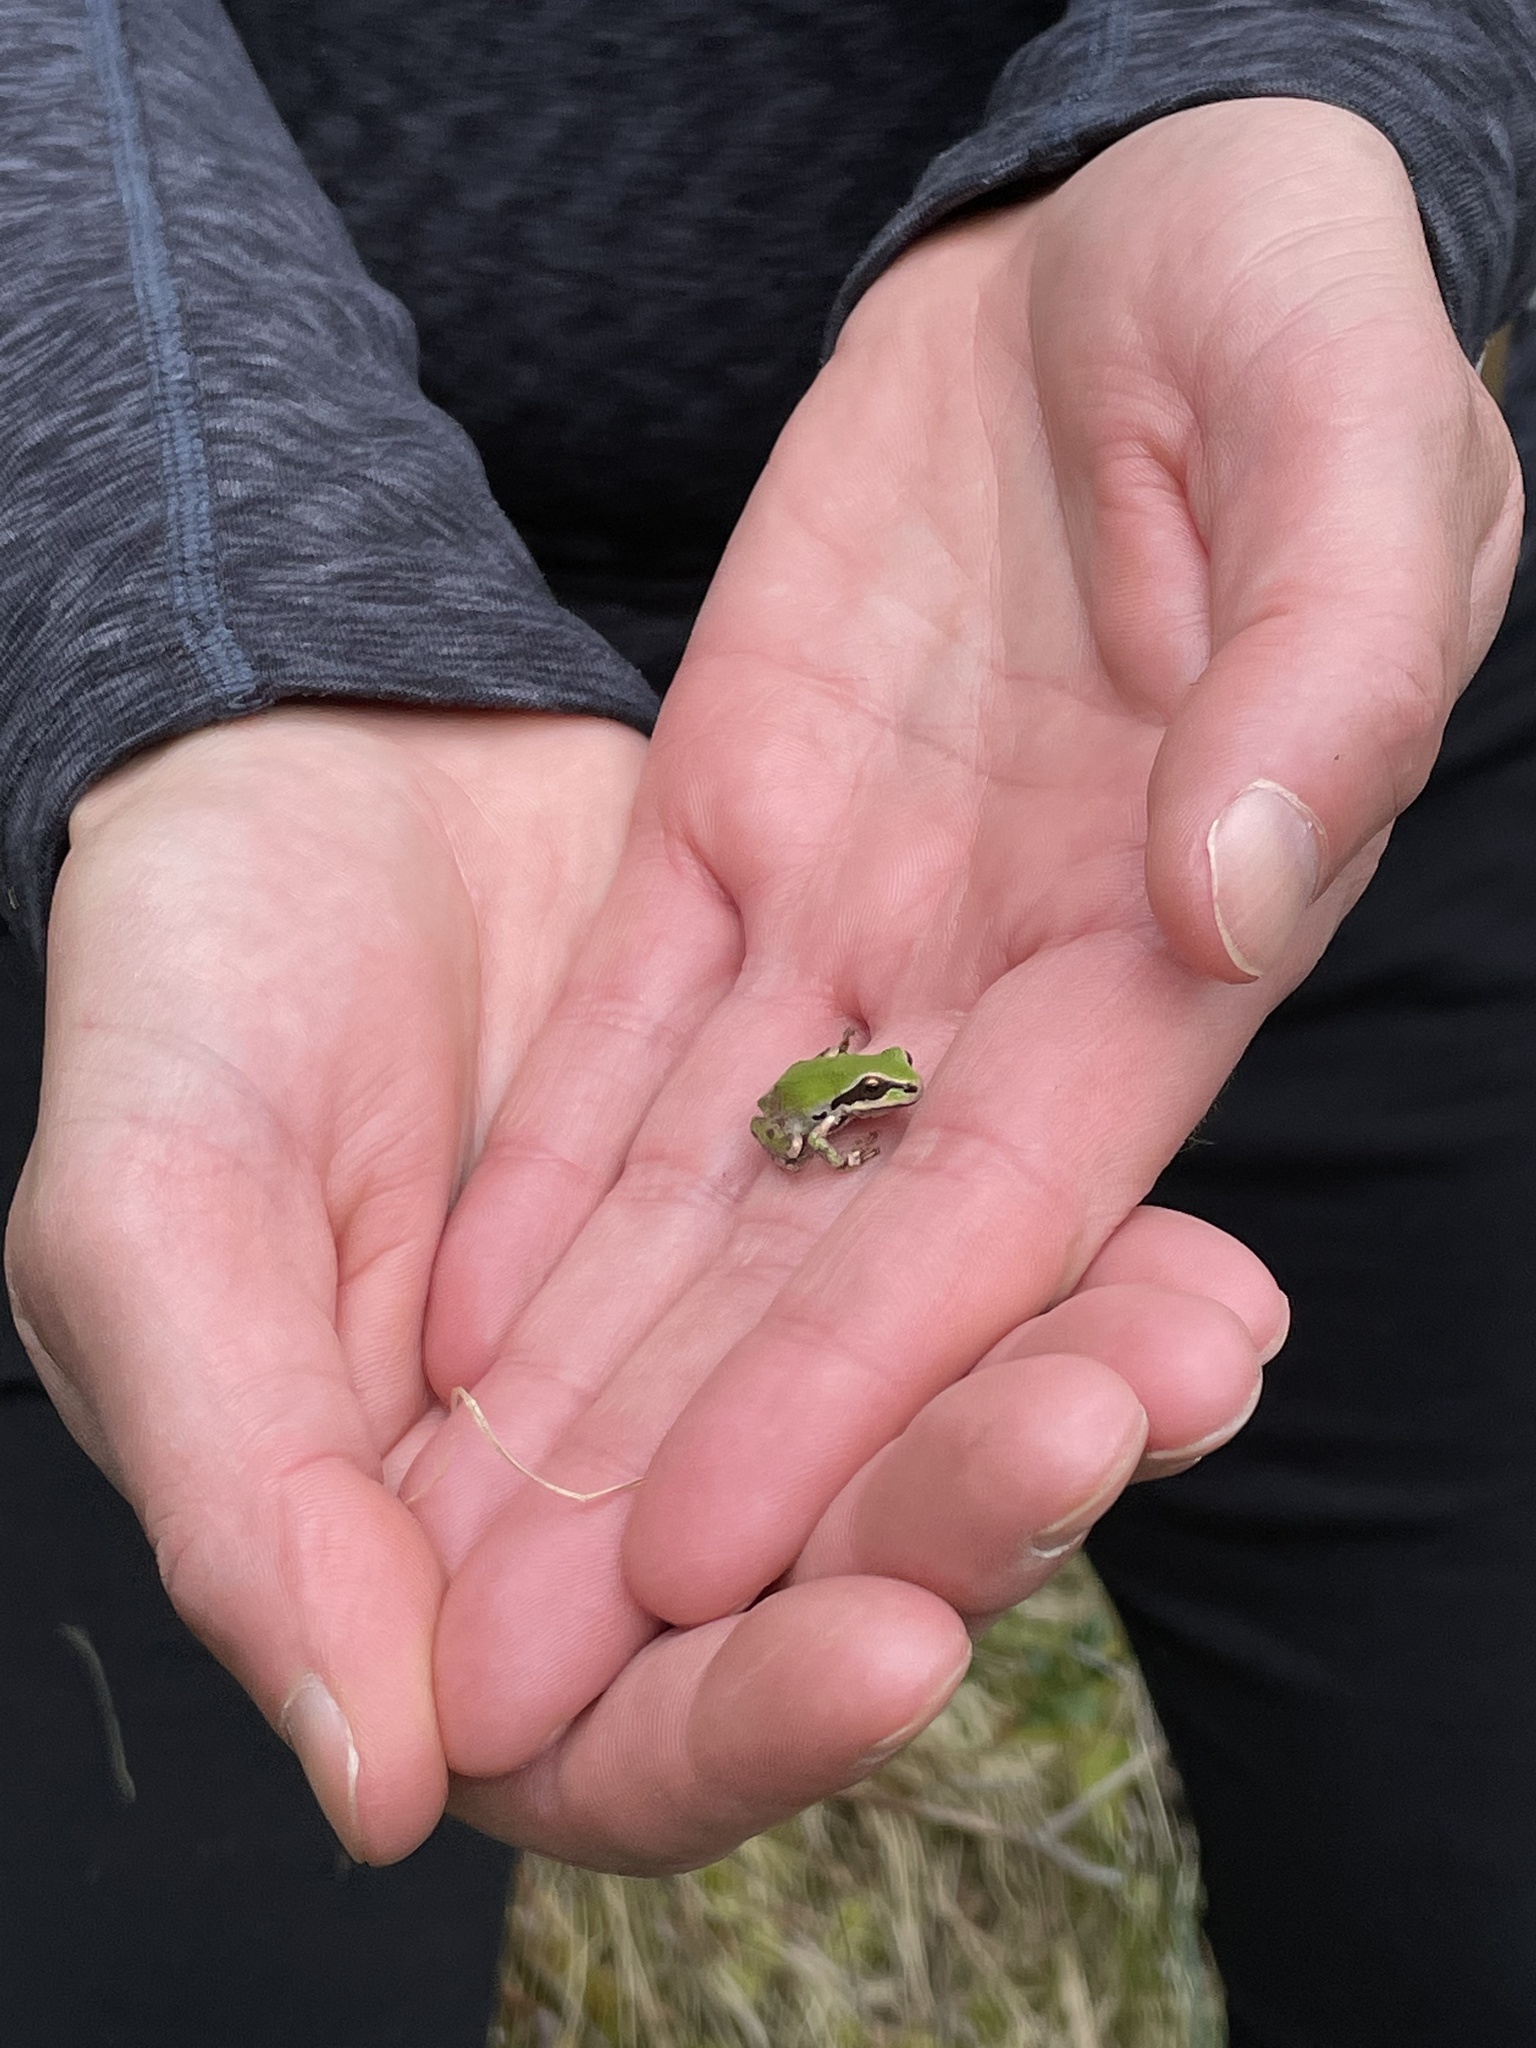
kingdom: Animalia
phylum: Chordata
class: Amphibia
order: Anura
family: Hylidae
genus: Pseudacris
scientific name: Pseudacris regilla
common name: Pacific chorus frog
